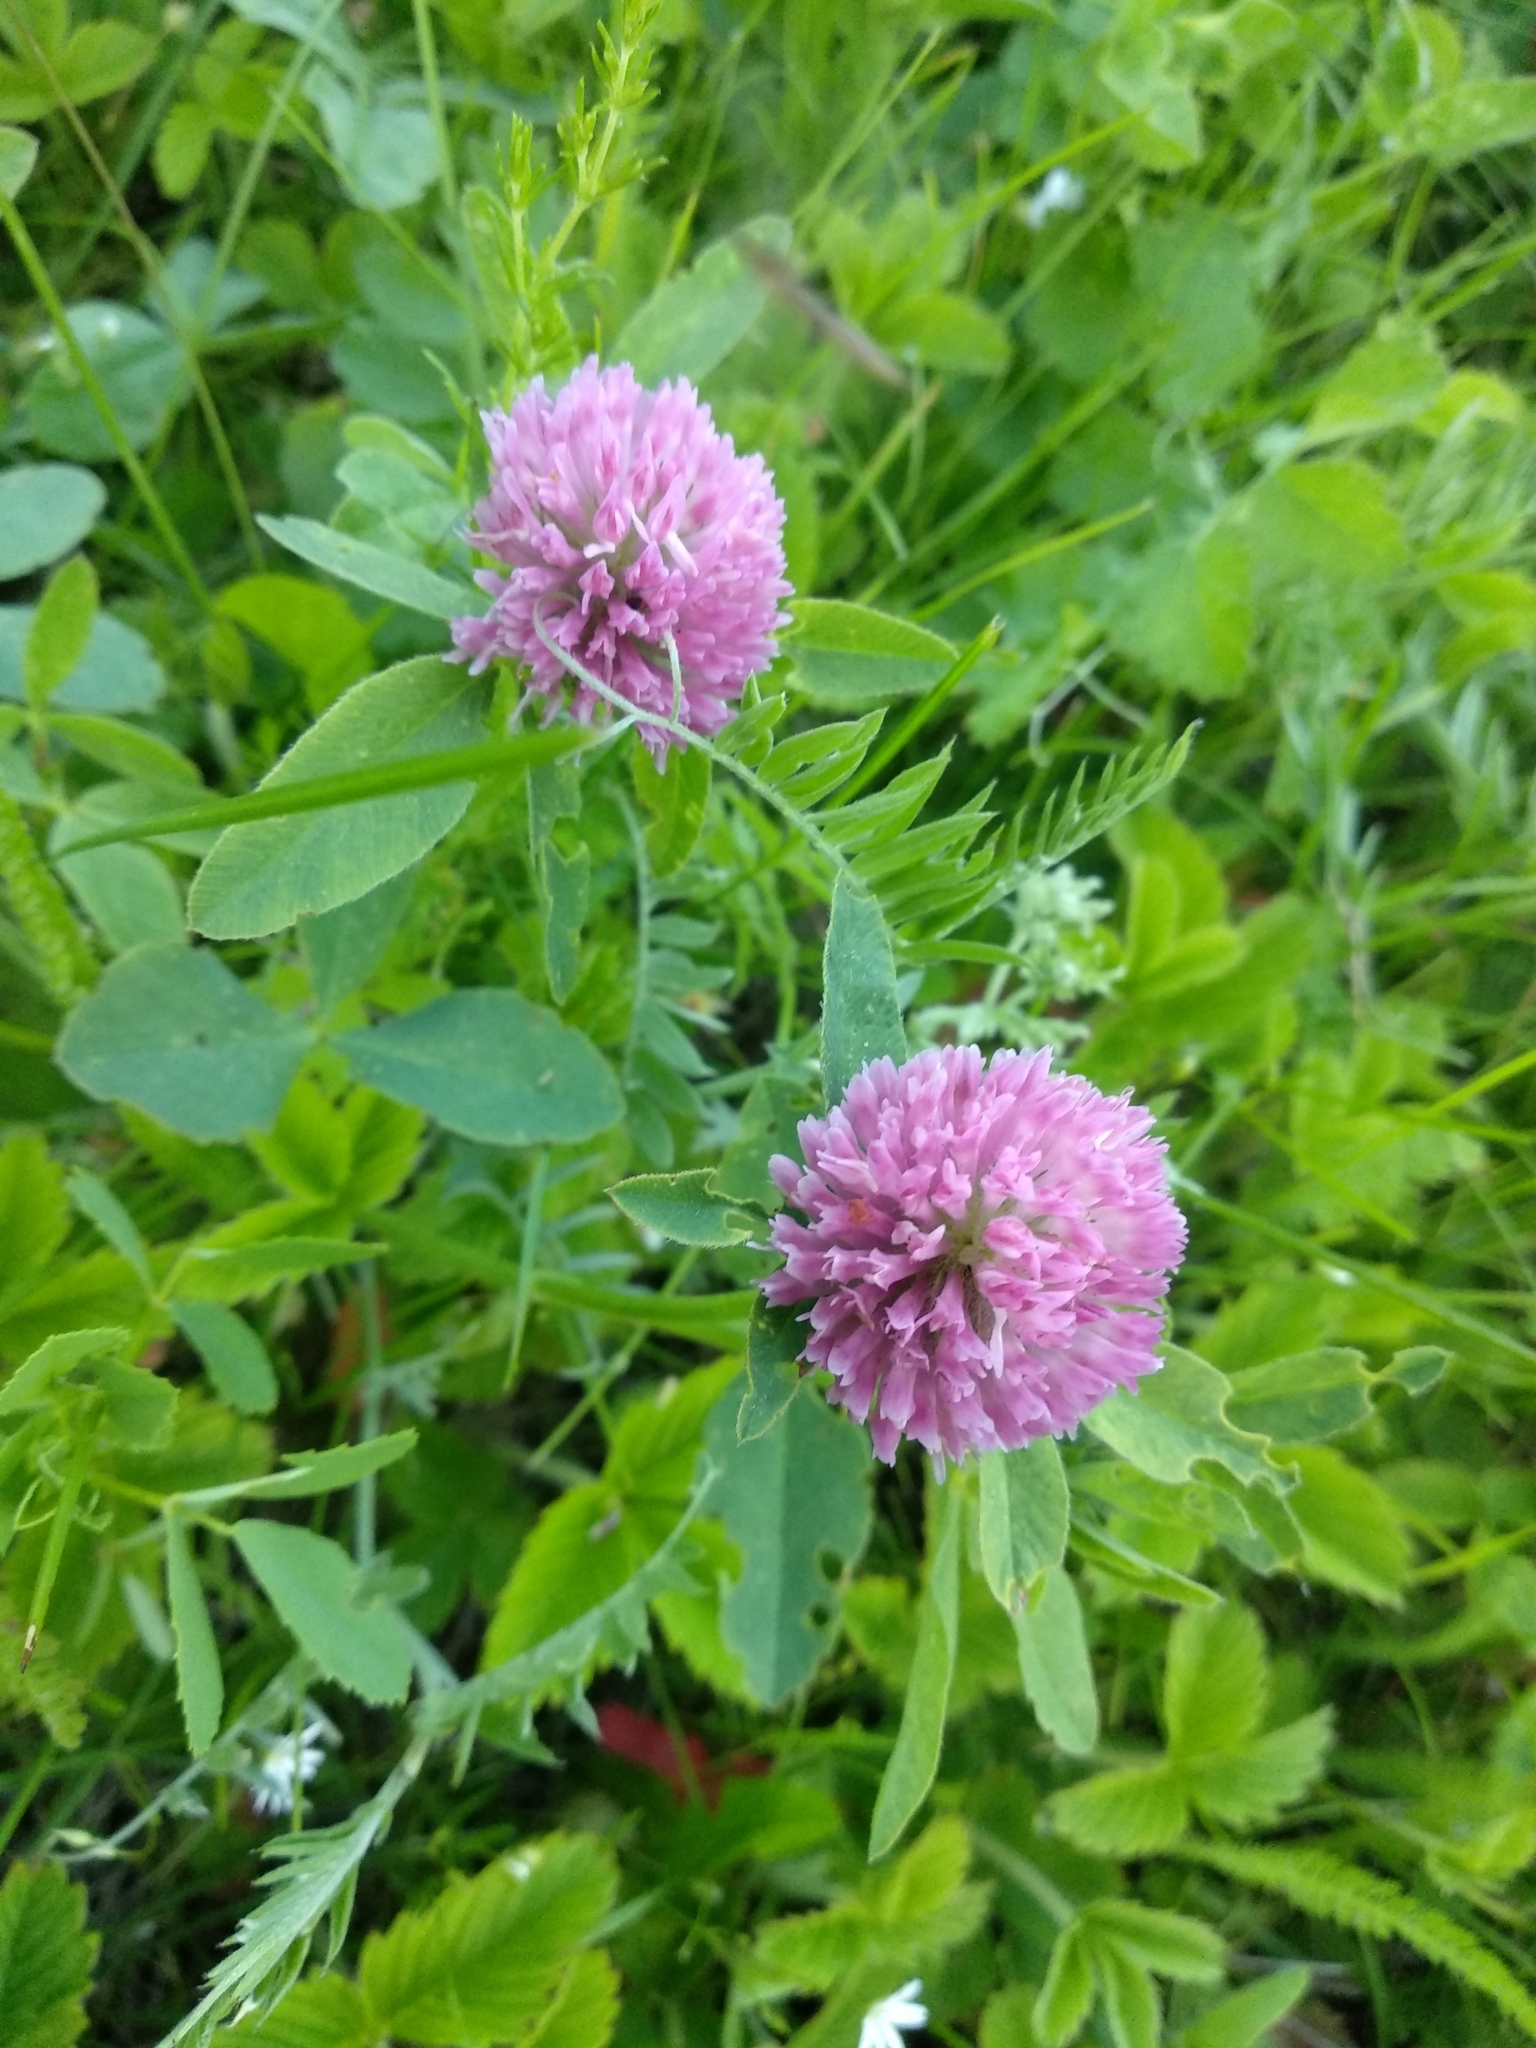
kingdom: Plantae
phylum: Tracheophyta
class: Magnoliopsida
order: Fabales
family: Fabaceae
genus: Trifolium
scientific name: Trifolium pratense
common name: Red clover
